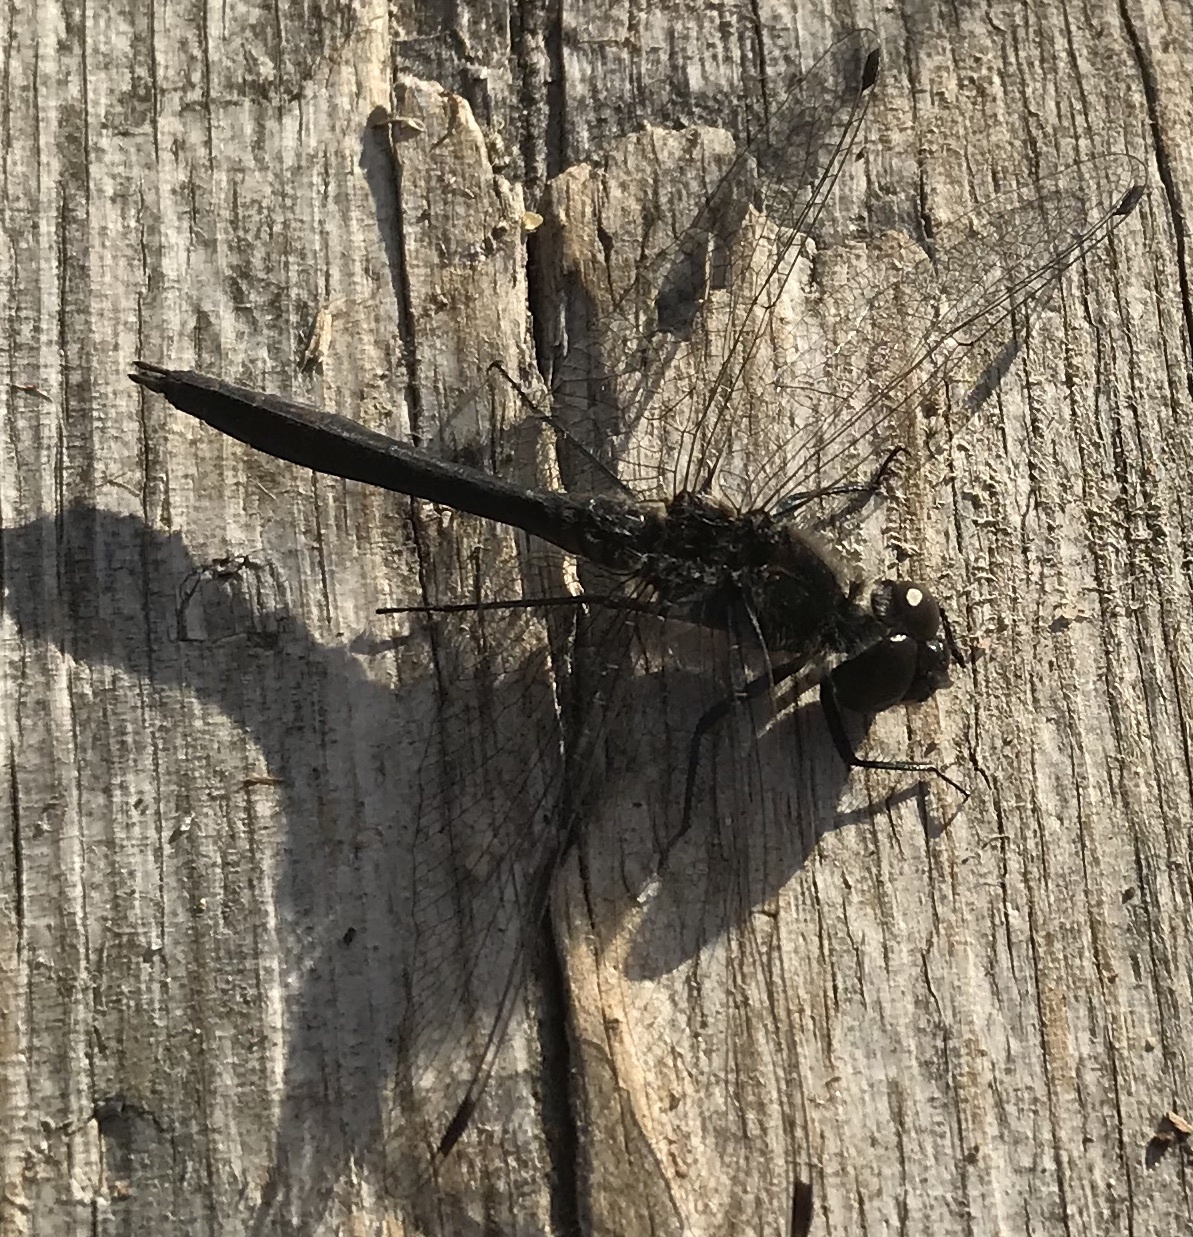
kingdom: Animalia
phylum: Arthropoda
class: Insecta
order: Odonata
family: Libellulidae
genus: Sympetrum
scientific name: Sympetrum danae
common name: Black darter
